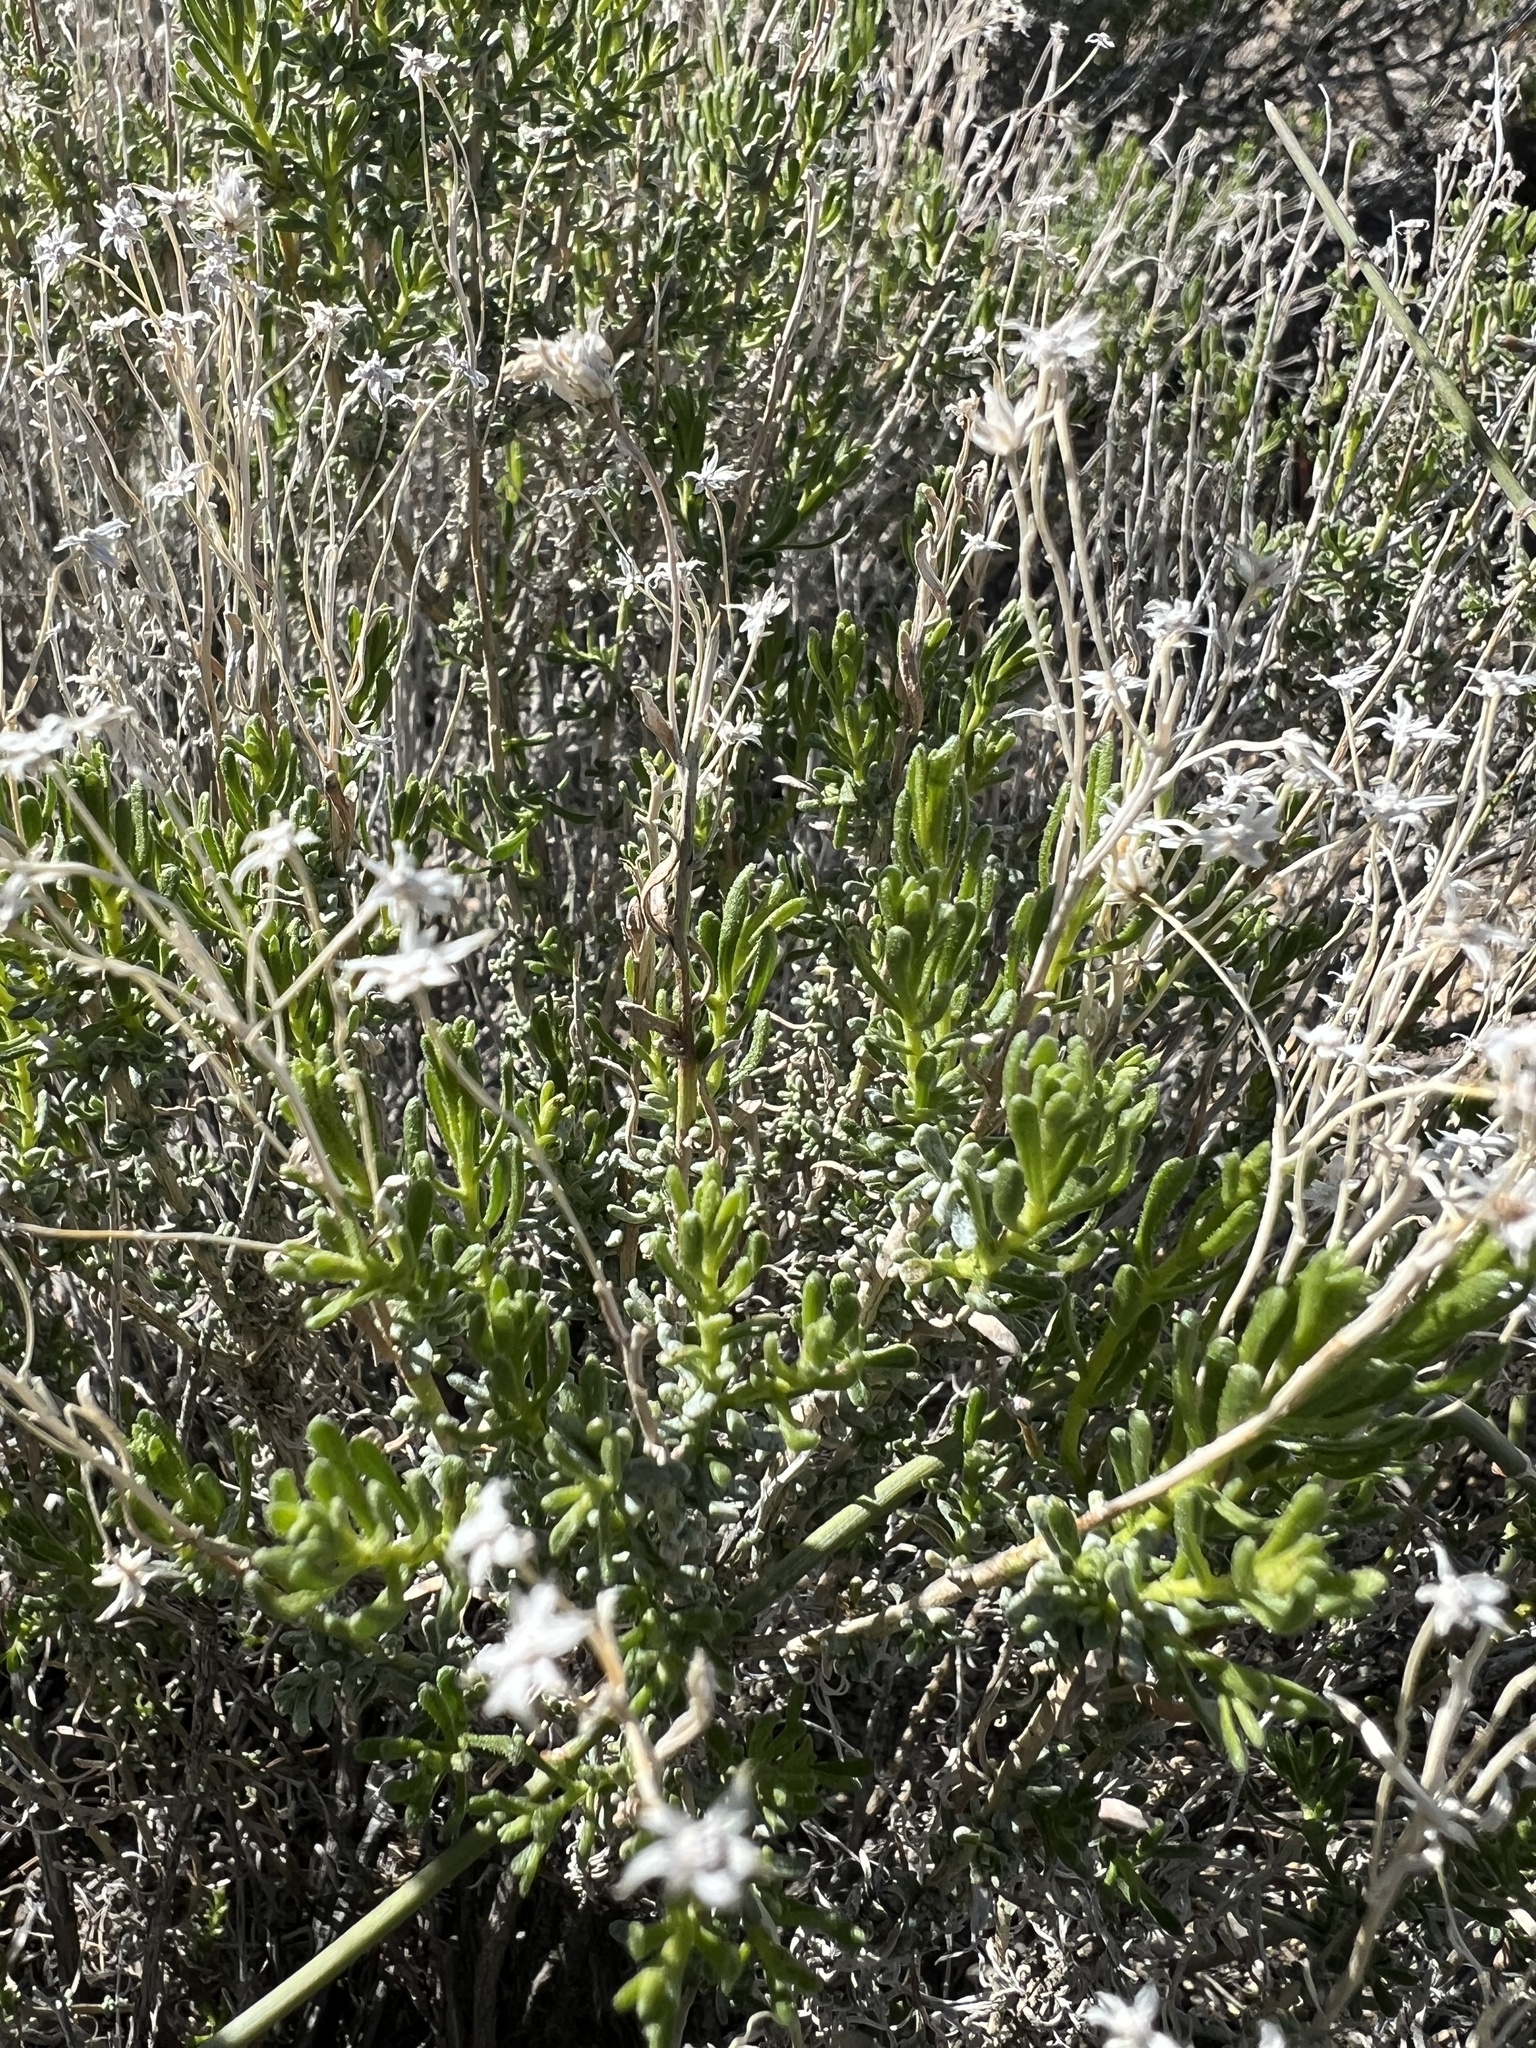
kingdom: Plantae
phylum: Tracheophyta
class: Magnoliopsida
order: Asterales
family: Asteraceae
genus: Ericameria
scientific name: Ericameria cooperi
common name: Cooper's goldenbush
